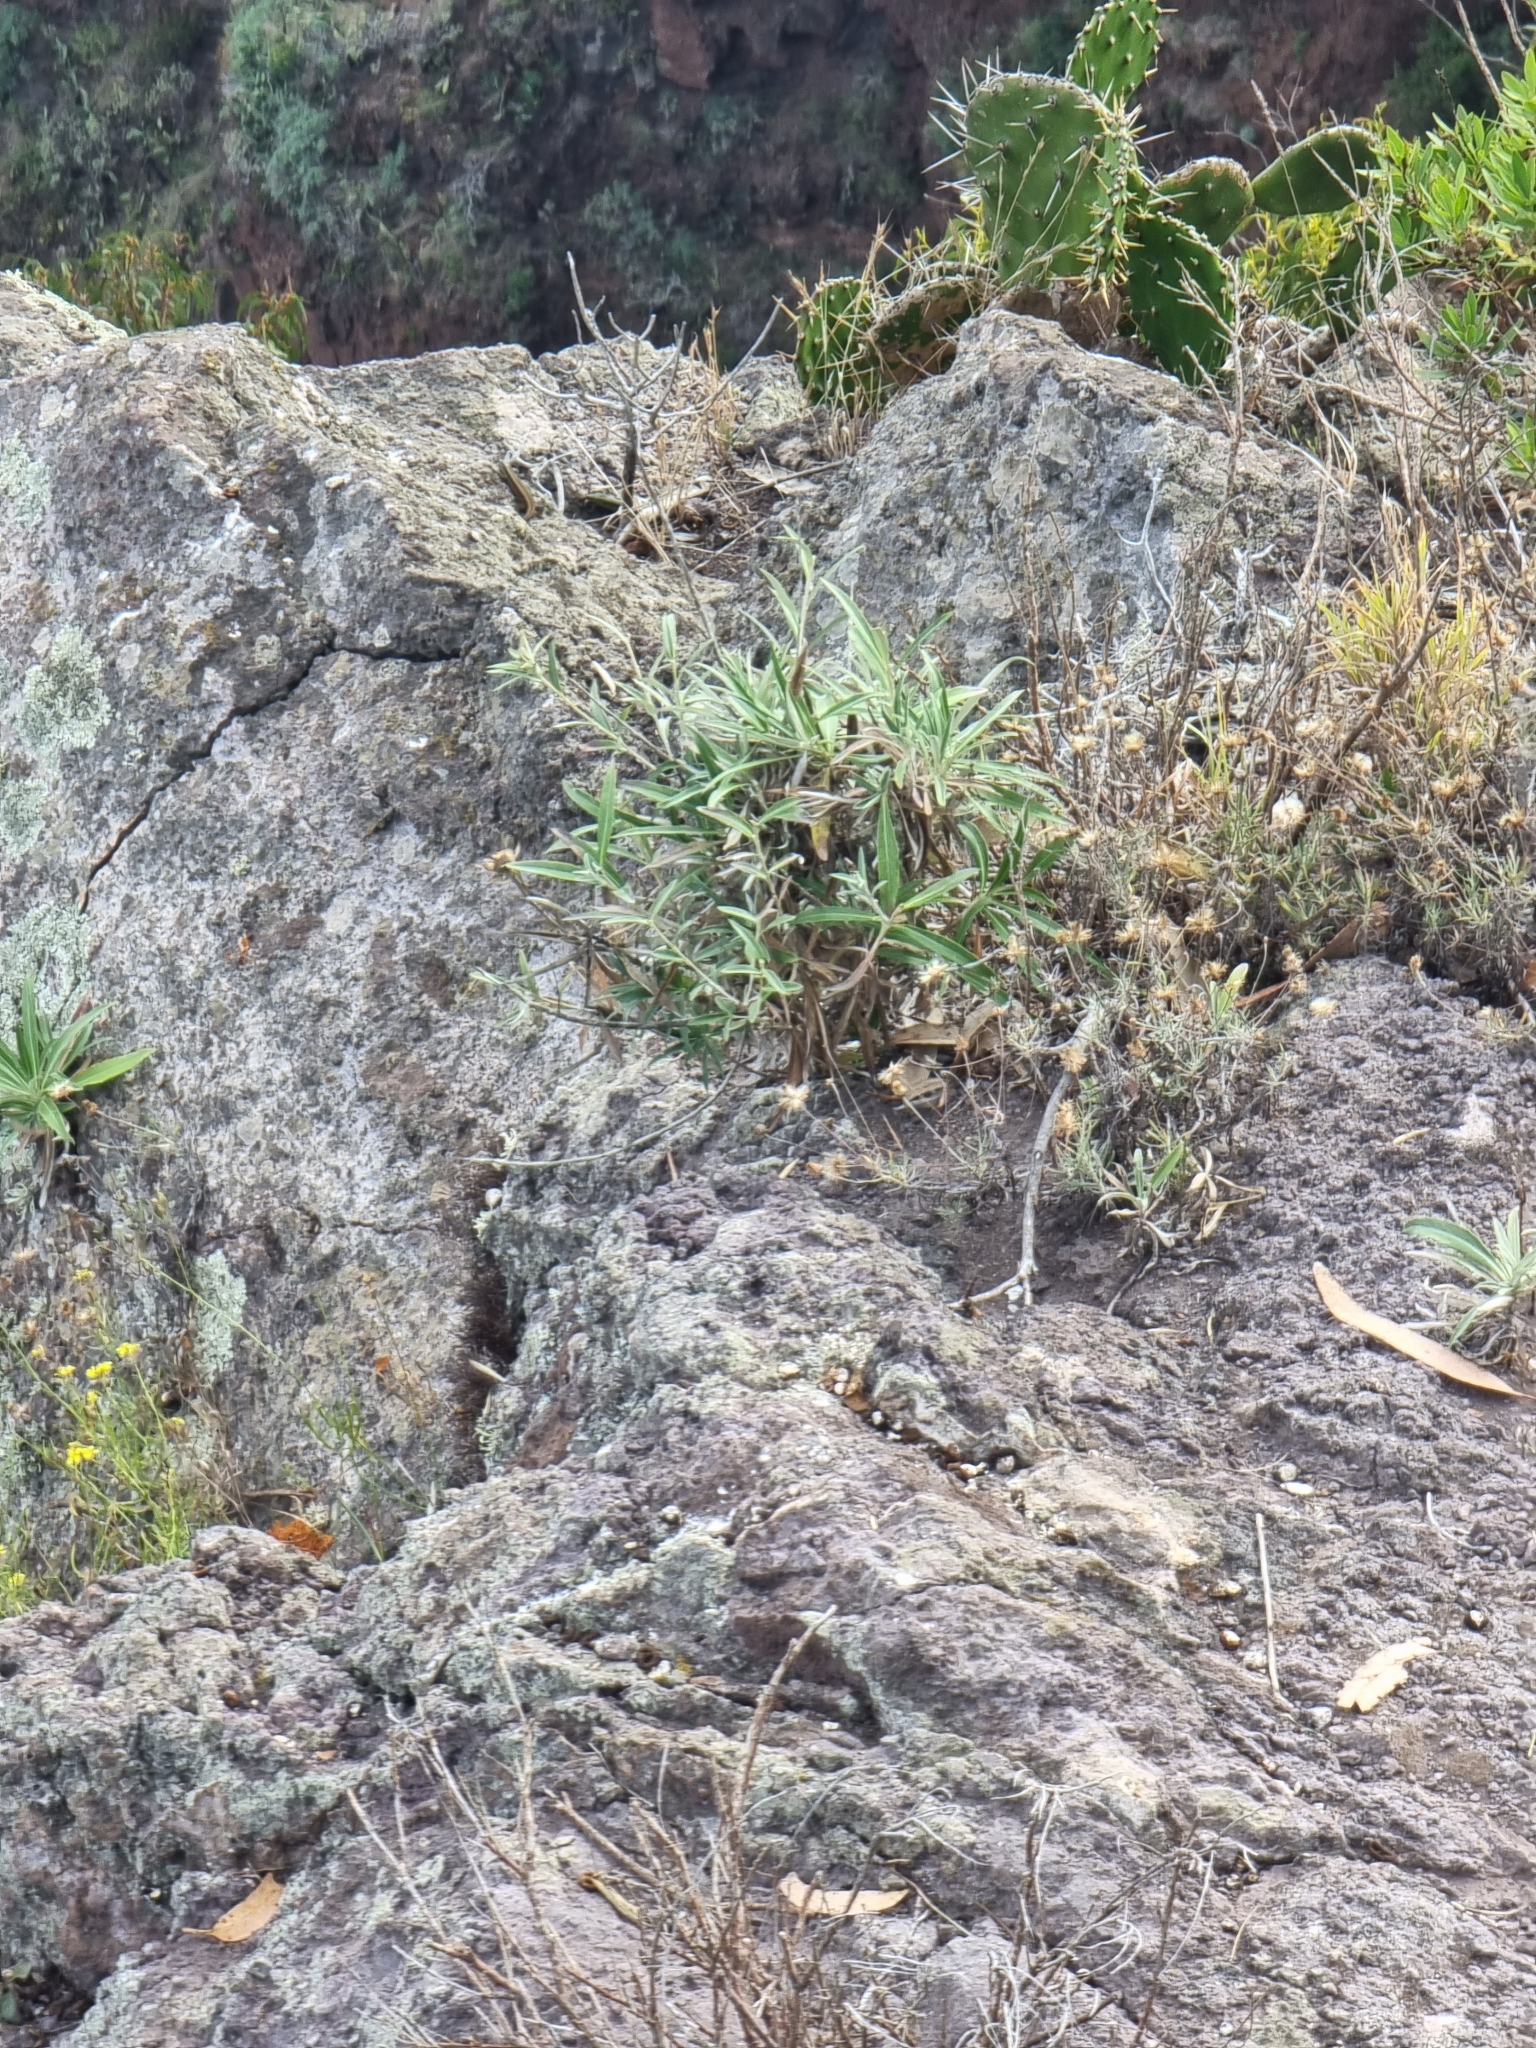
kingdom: Plantae
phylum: Tracheophyta
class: Magnoliopsida
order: Asterales
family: Asteraceae
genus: Carlina
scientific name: Carlina salicifolia
